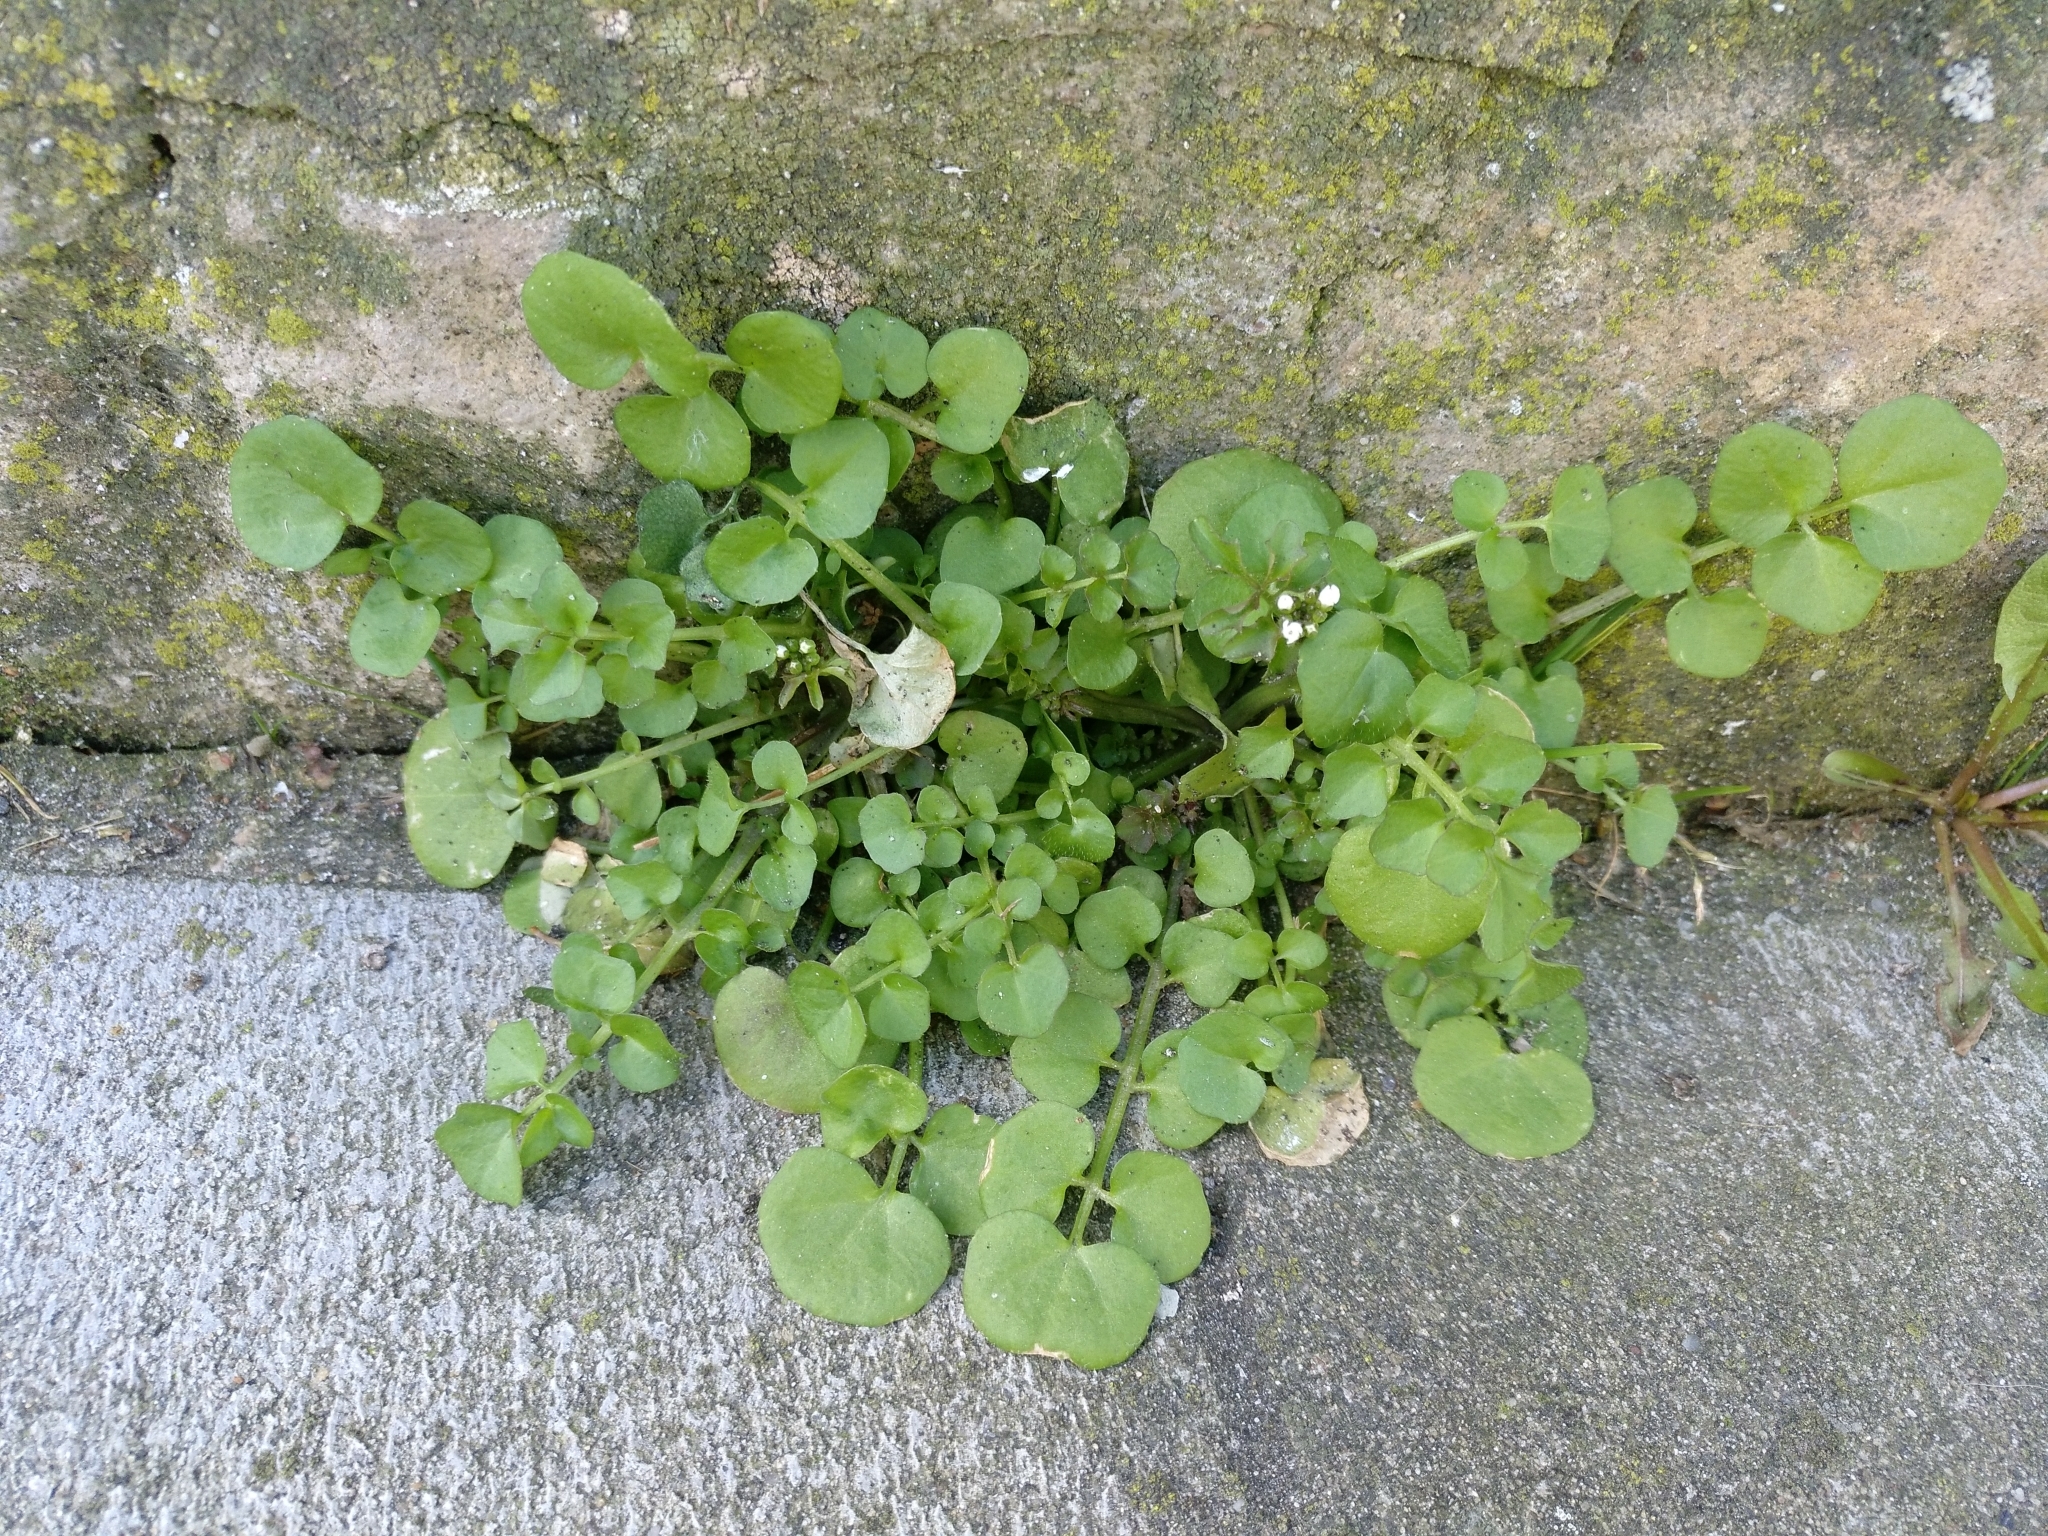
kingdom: Plantae
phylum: Tracheophyta
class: Magnoliopsida
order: Brassicales
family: Brassicaceae
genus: Cardamine
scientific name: Cardamine hirsuta
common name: Hairy bittercress
